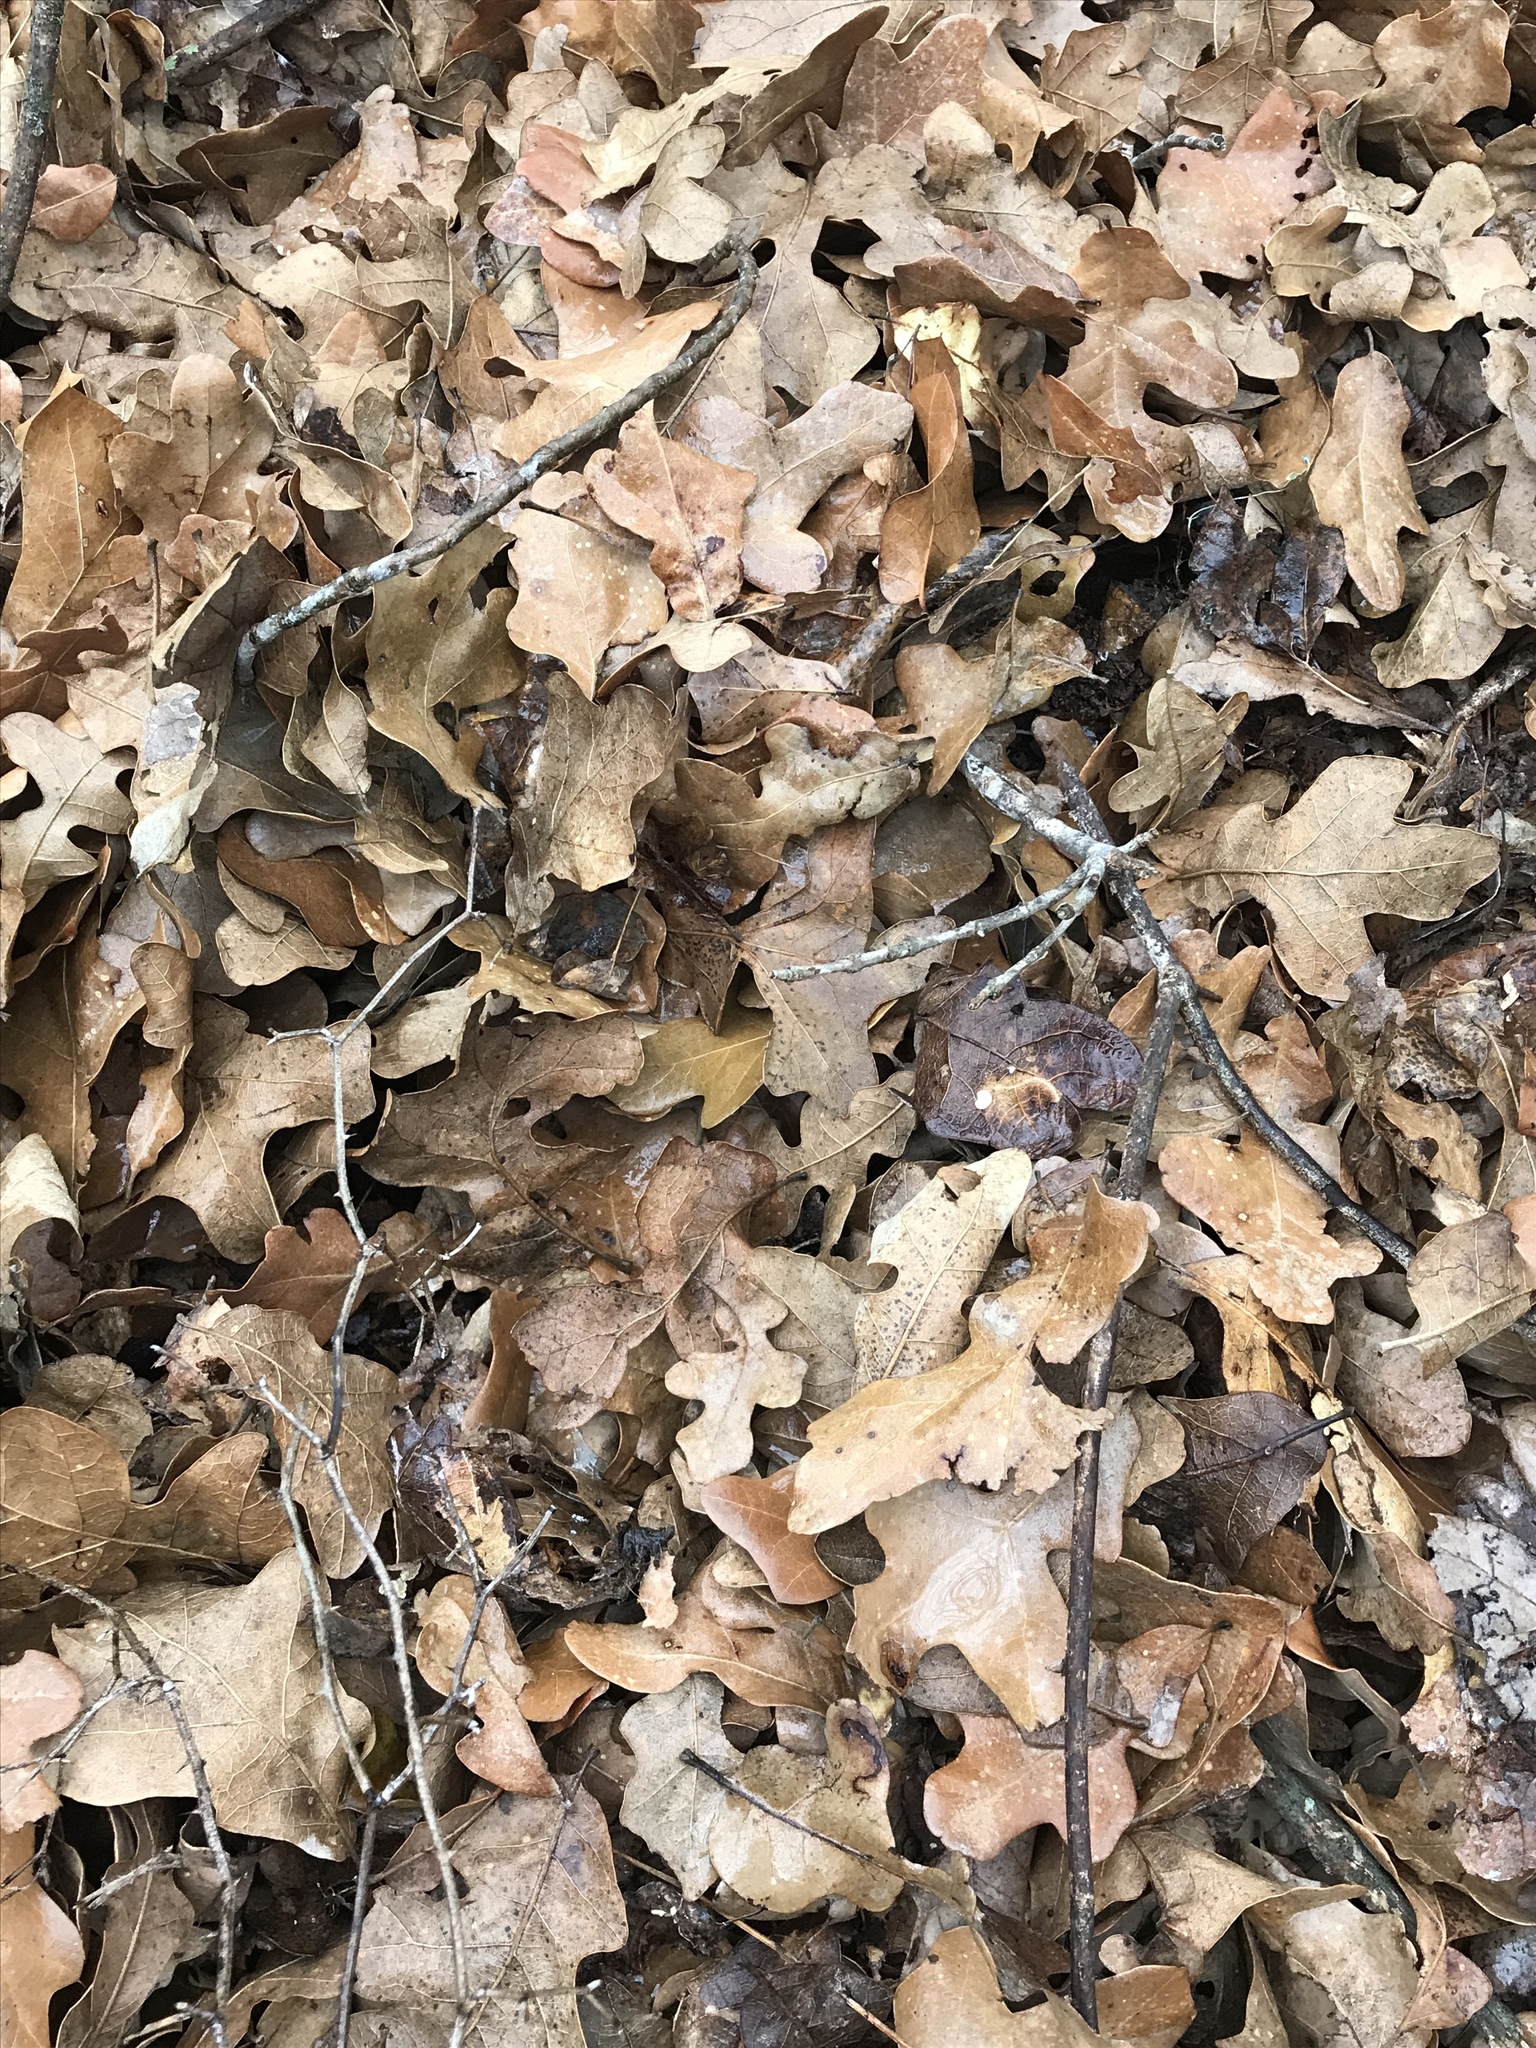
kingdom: Plantae
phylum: Tracheophyta
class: Magnoliopsida
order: Fagales
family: Fagaceae
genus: Quercus
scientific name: Quercus stellata
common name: Post oak
